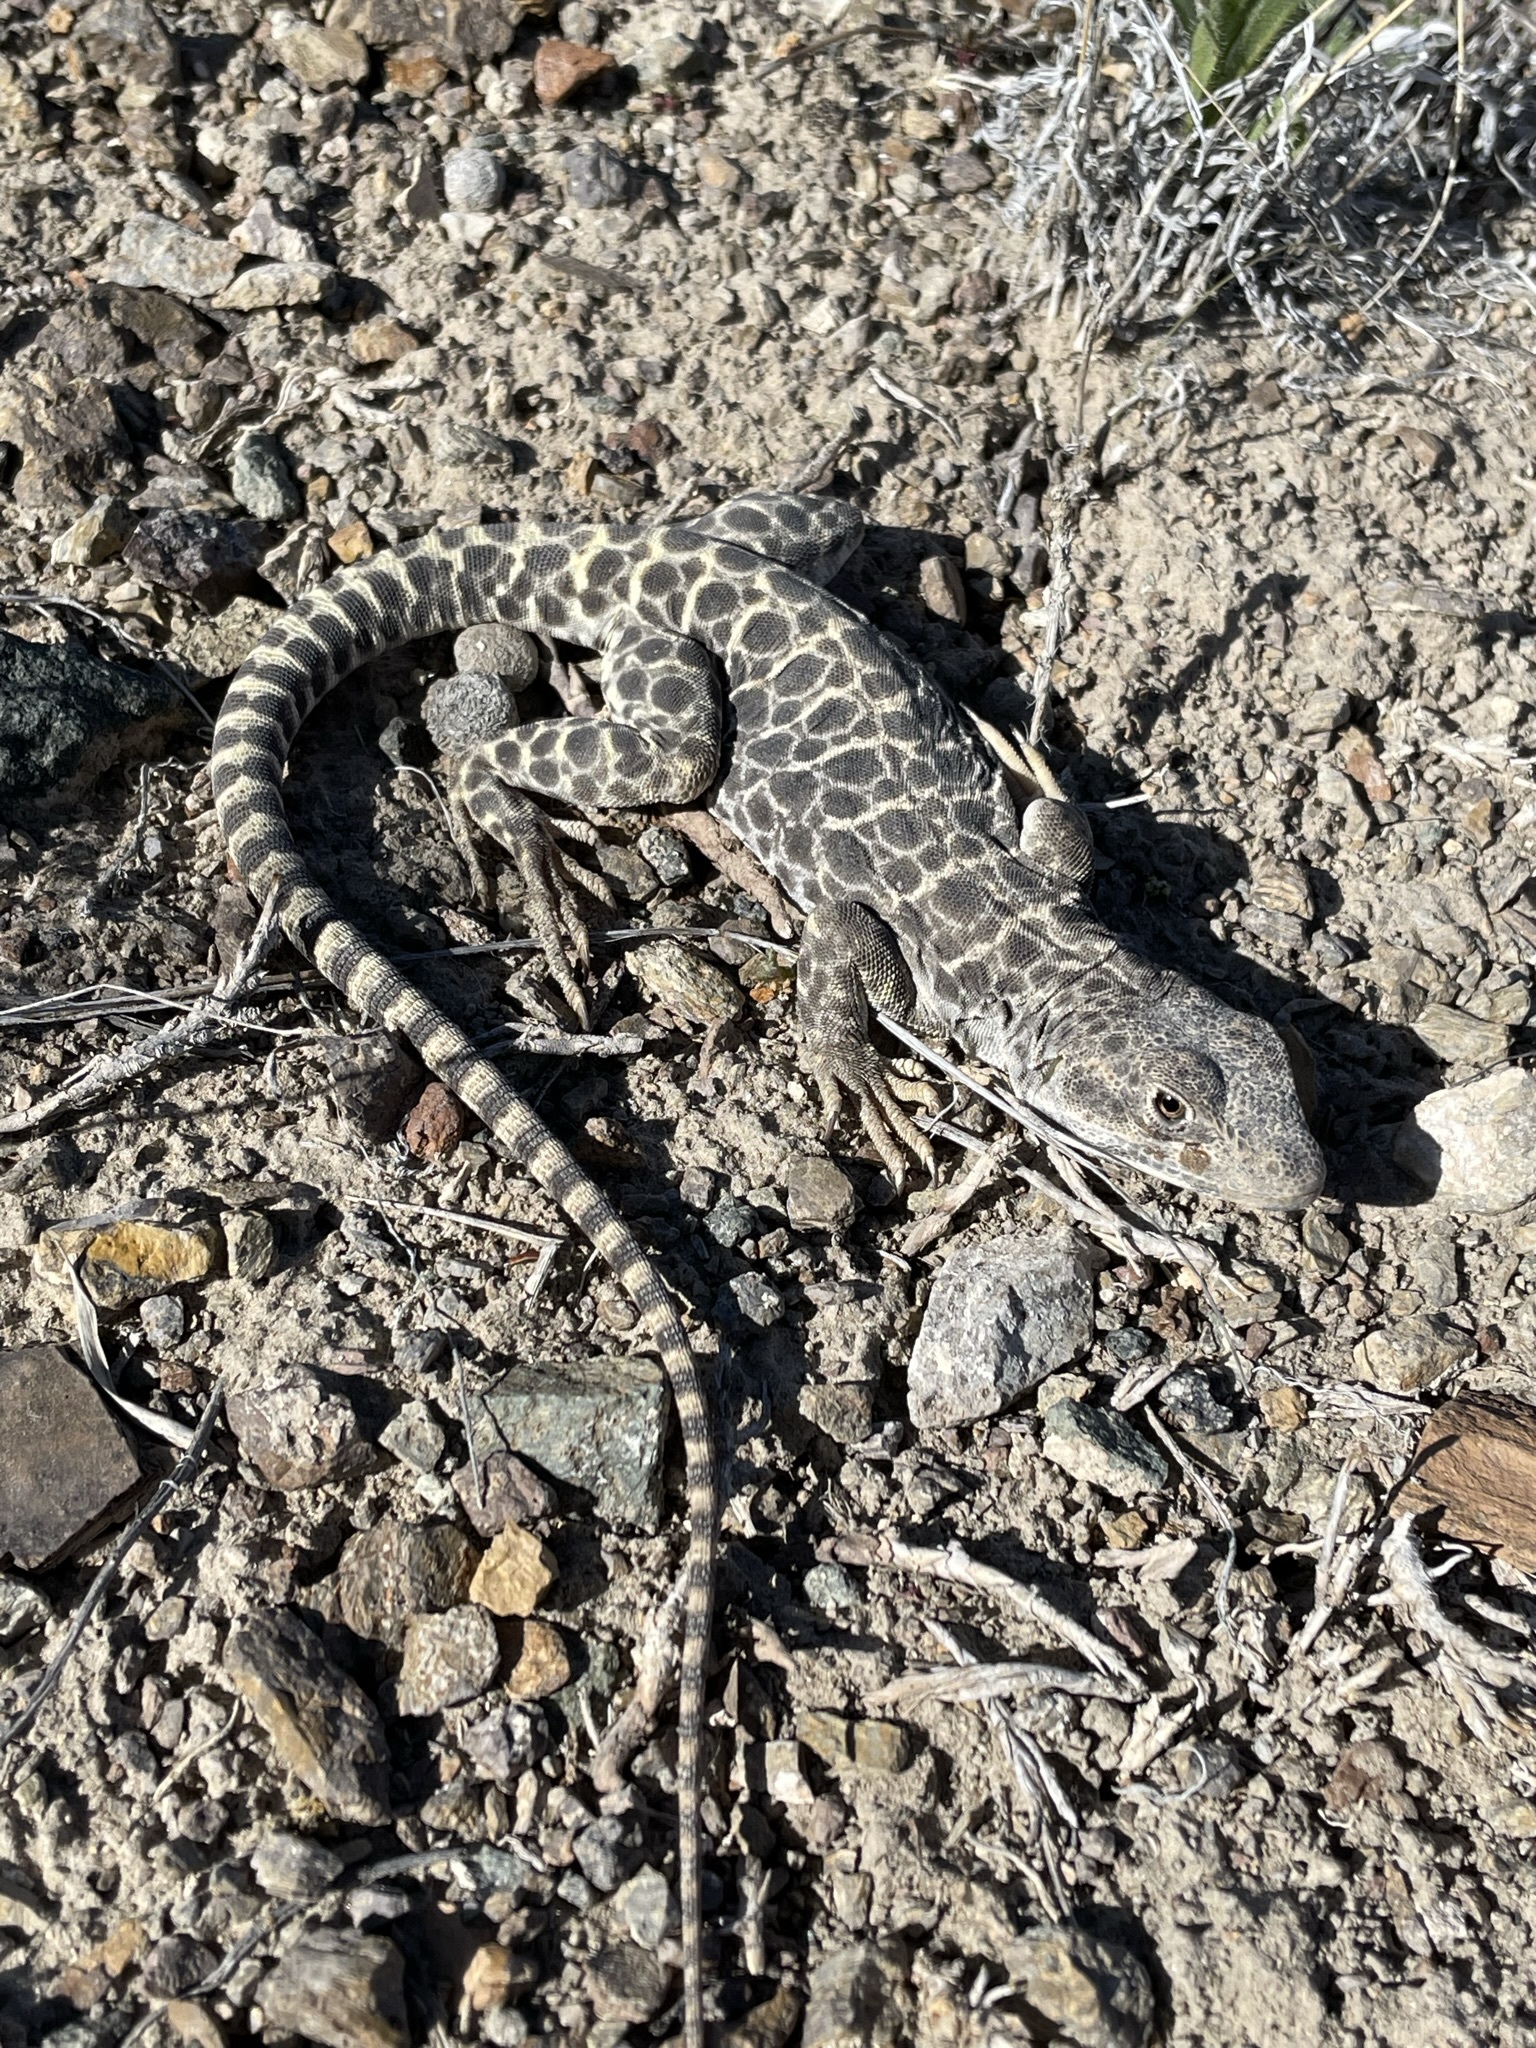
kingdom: Animalia
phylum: Chordata
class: Squamata
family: Crotaphytidae
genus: Gambelia
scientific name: Gambelia wislizenii
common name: Longnose leopard lizard
